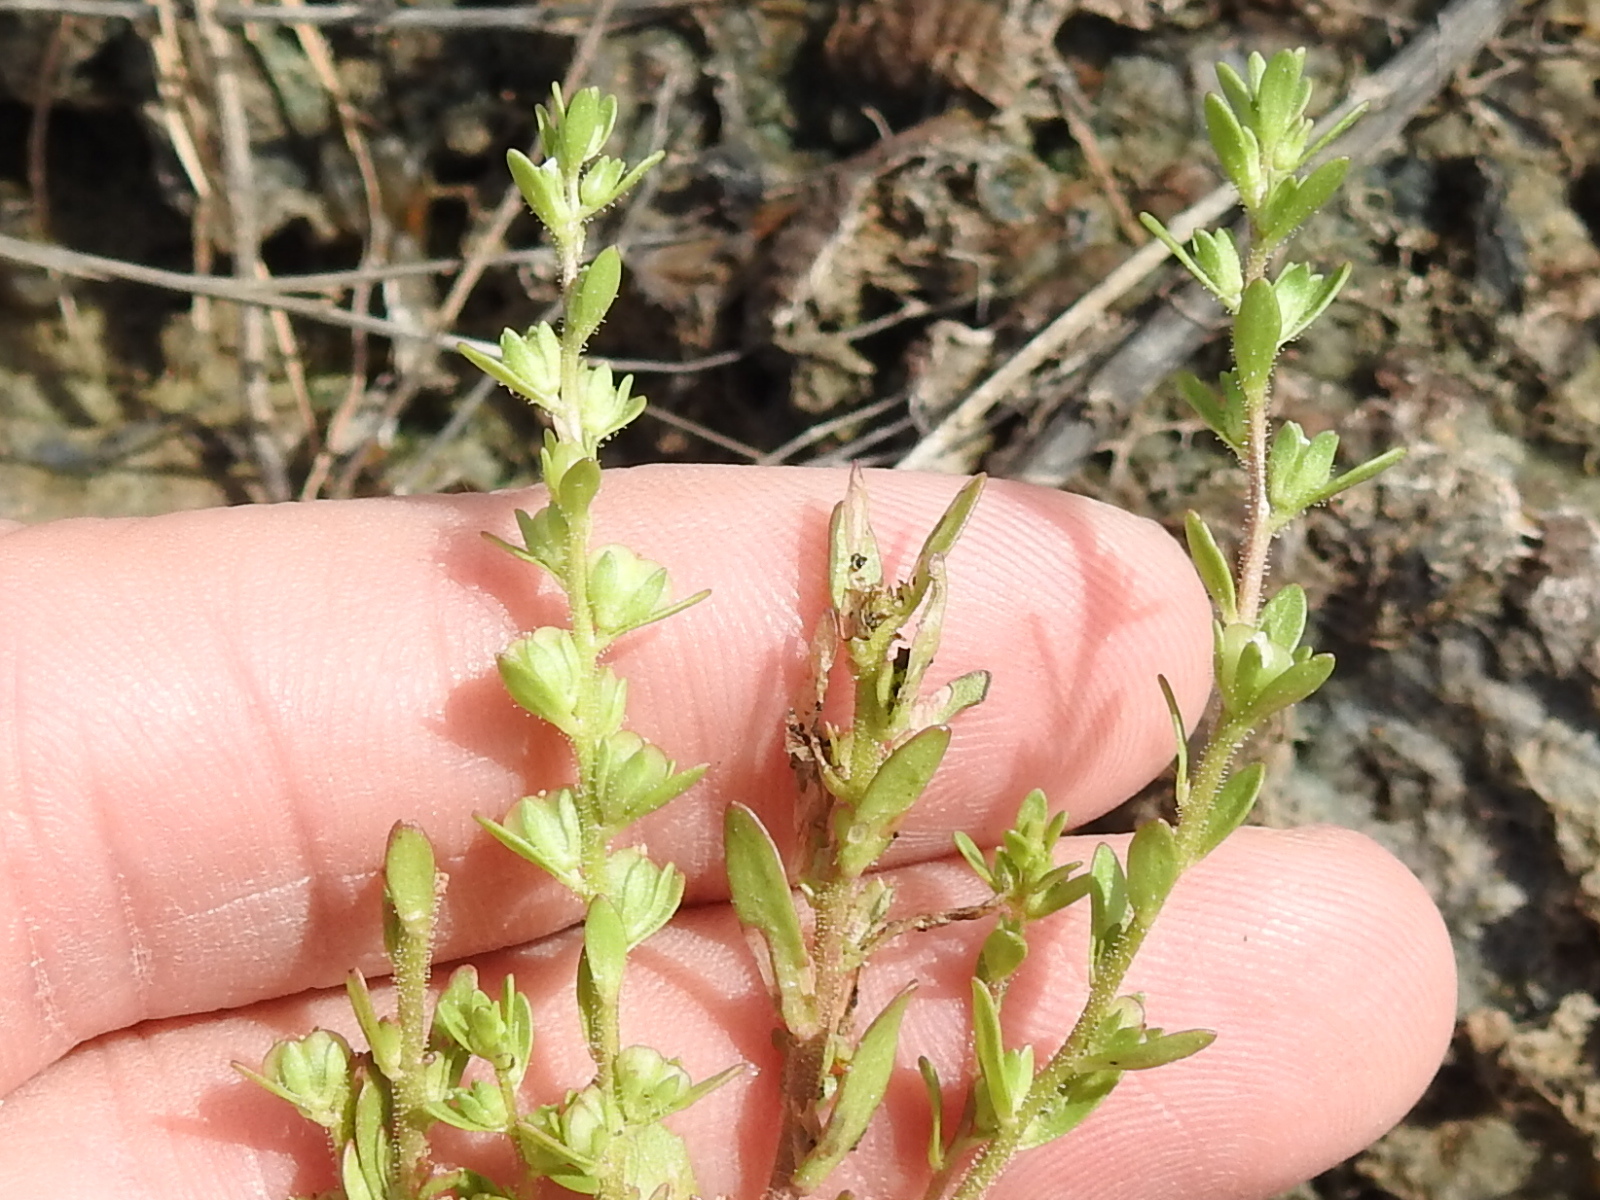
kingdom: Plantae
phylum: Tracheophyta
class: Magnoliopsida
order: Lamiales
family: Plantaginaceae
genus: Veronica
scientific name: Veronica peregrina
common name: Neckweed
